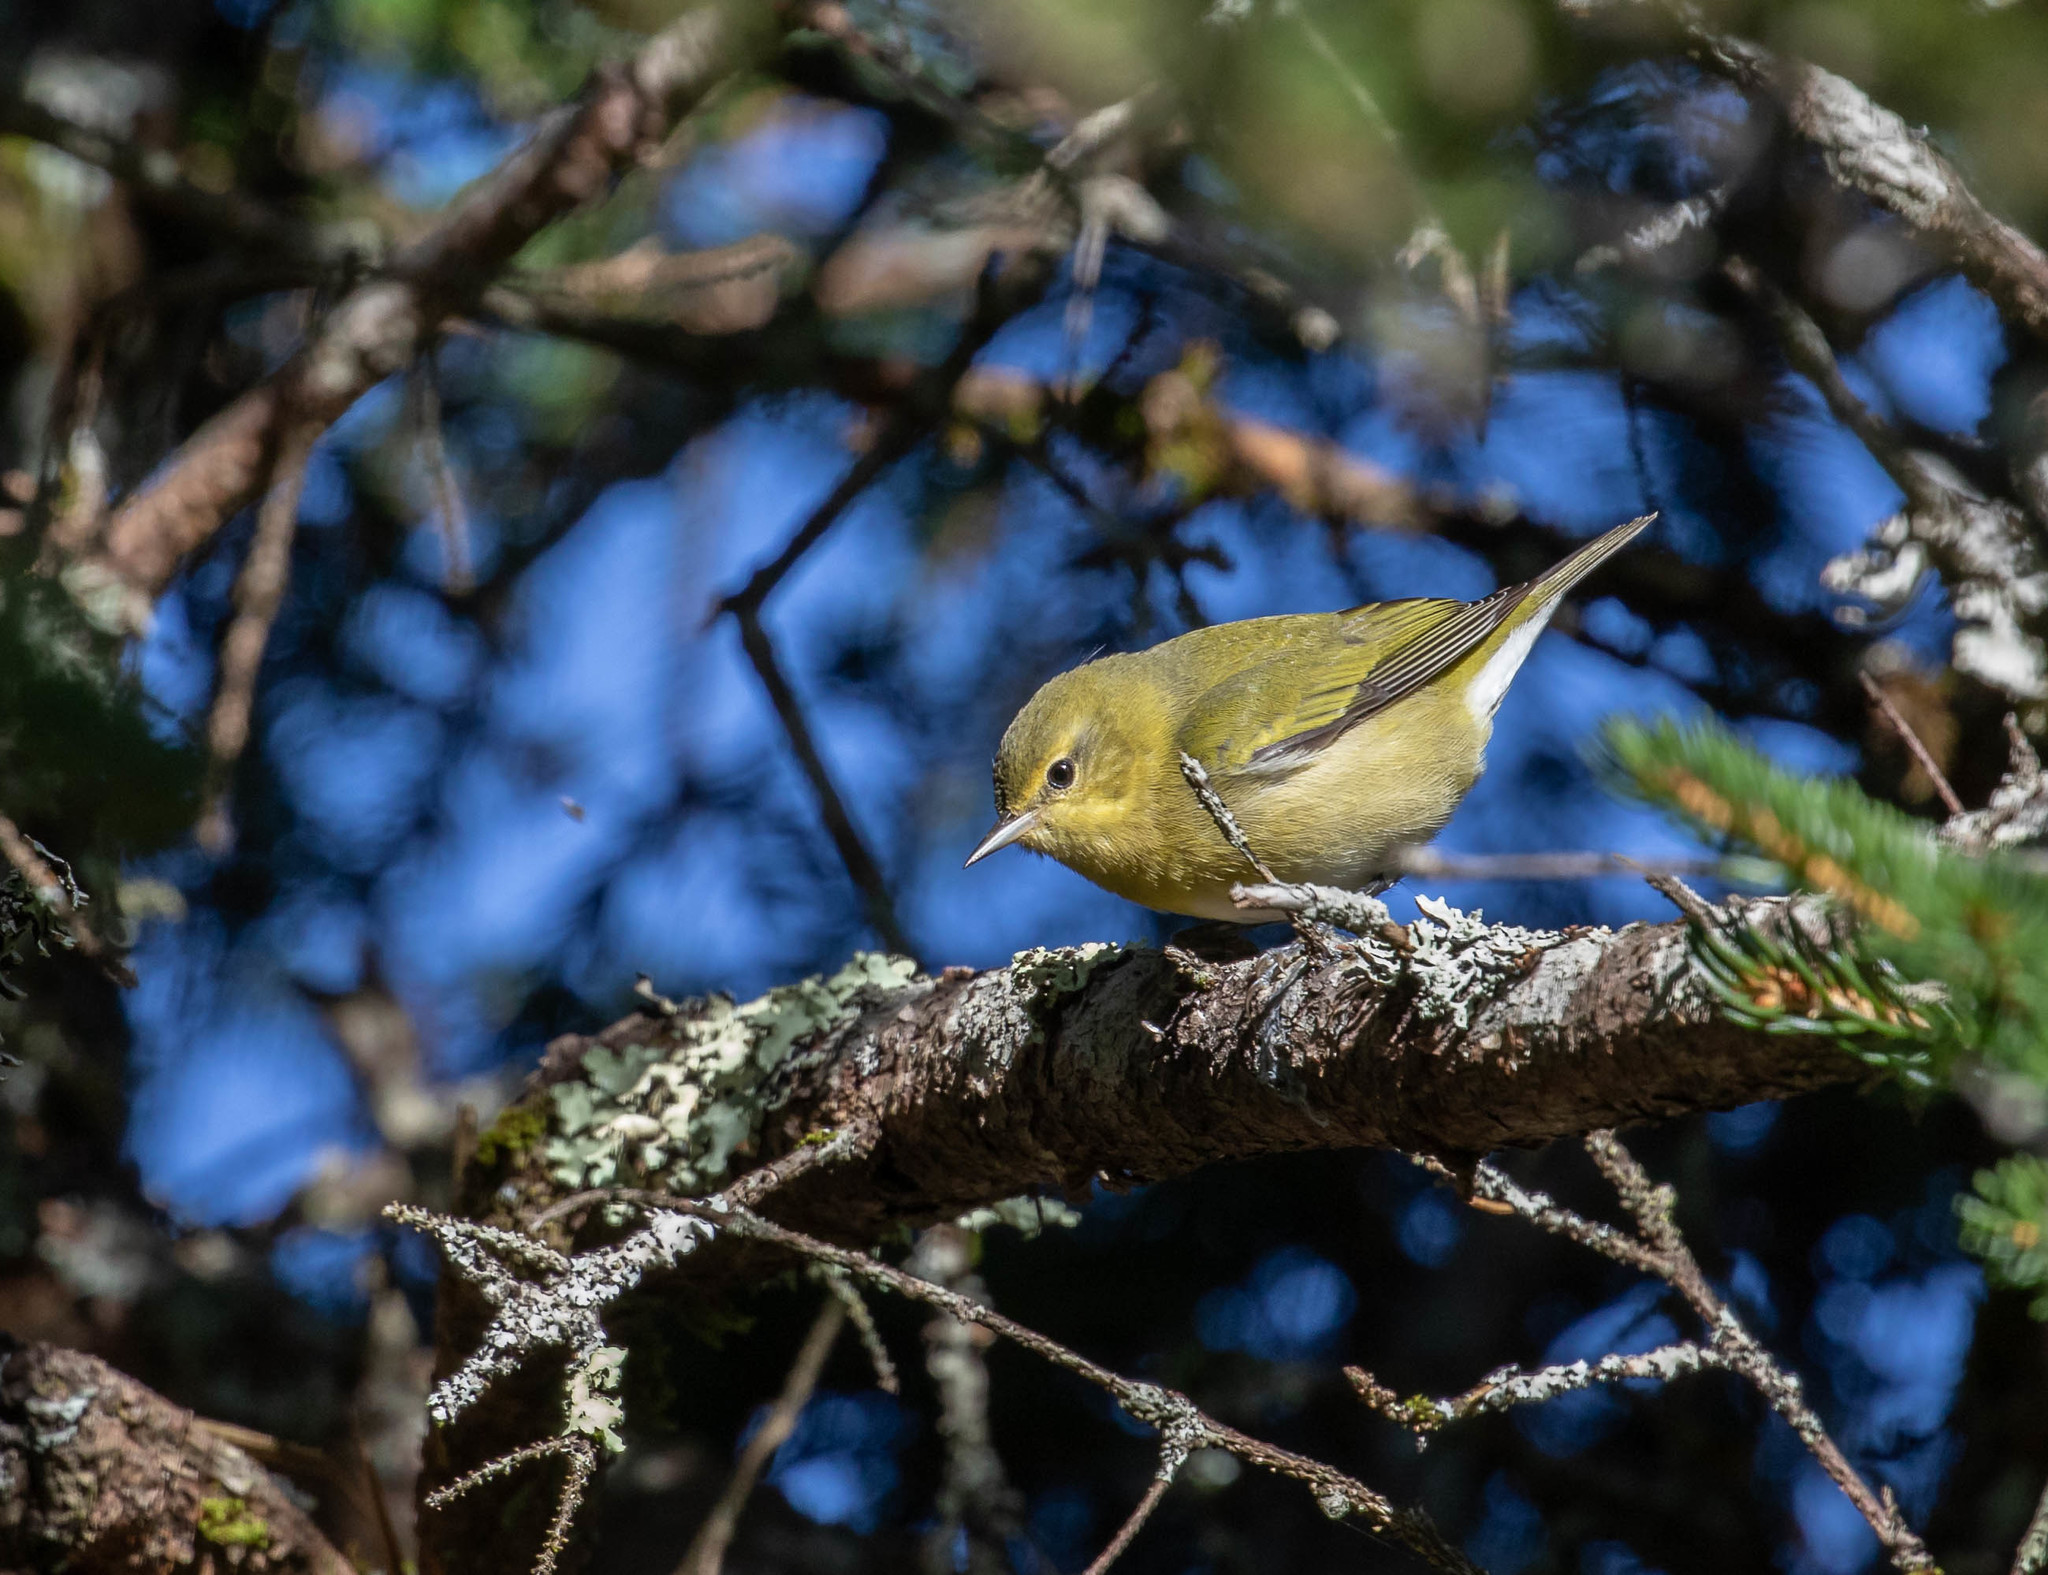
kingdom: Animalia
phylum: Chordata
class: Aves
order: Passeriformes
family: Parulidae
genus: Leiothlypis
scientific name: Leiothlypis peregrina
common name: Tennessee warbler
